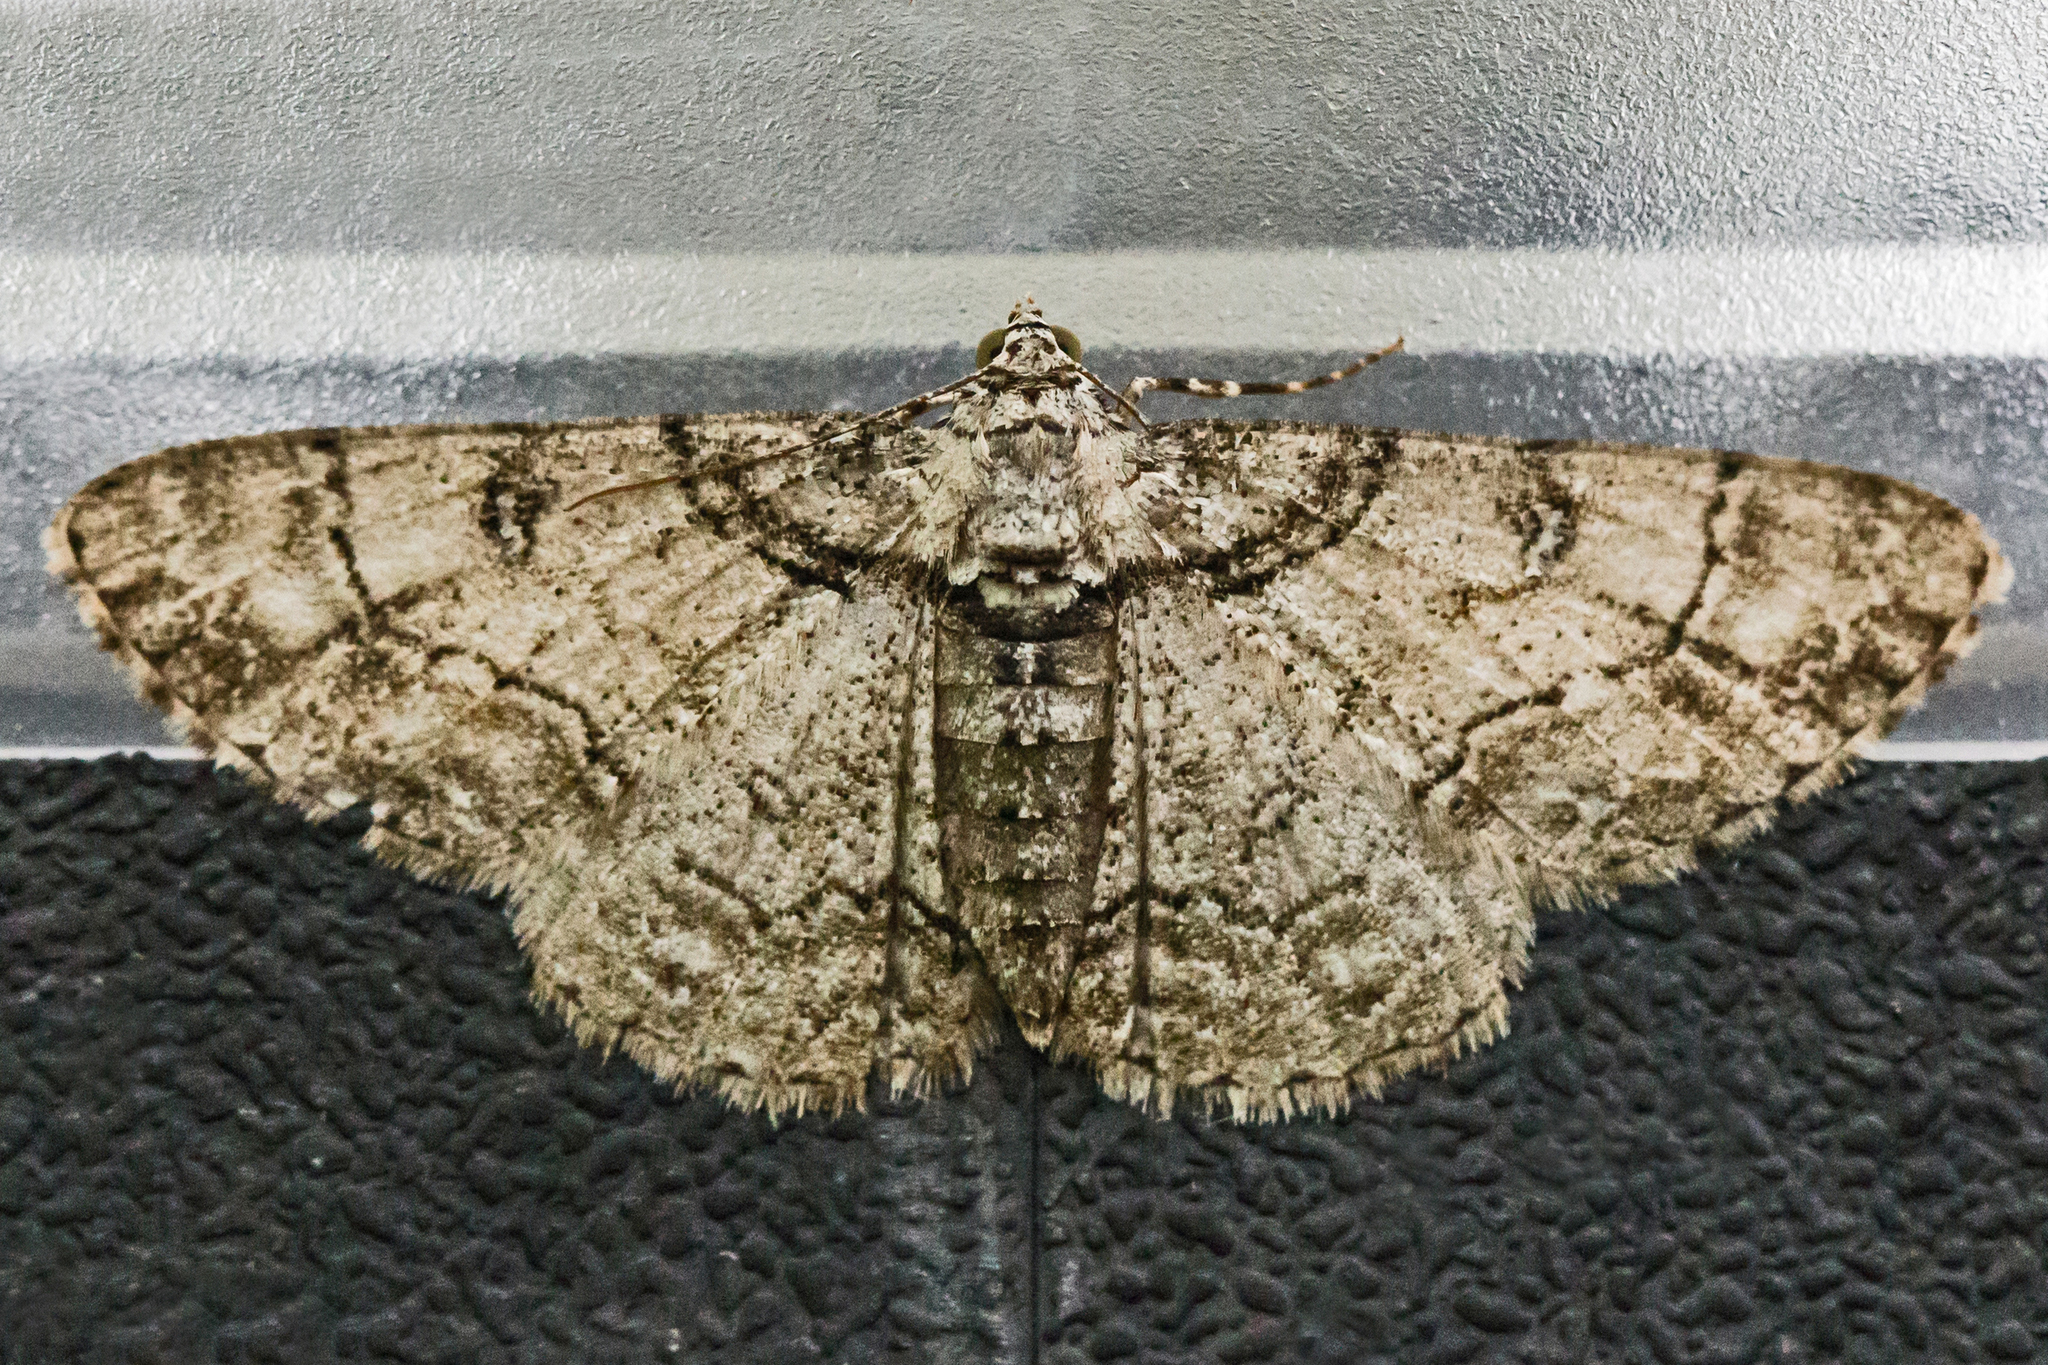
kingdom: Animalia
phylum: Arthropoda
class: Insecta
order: Lepidoptera
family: Geometridae
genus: Cleora
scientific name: Cleora sublunaria
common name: Double-lined gray
